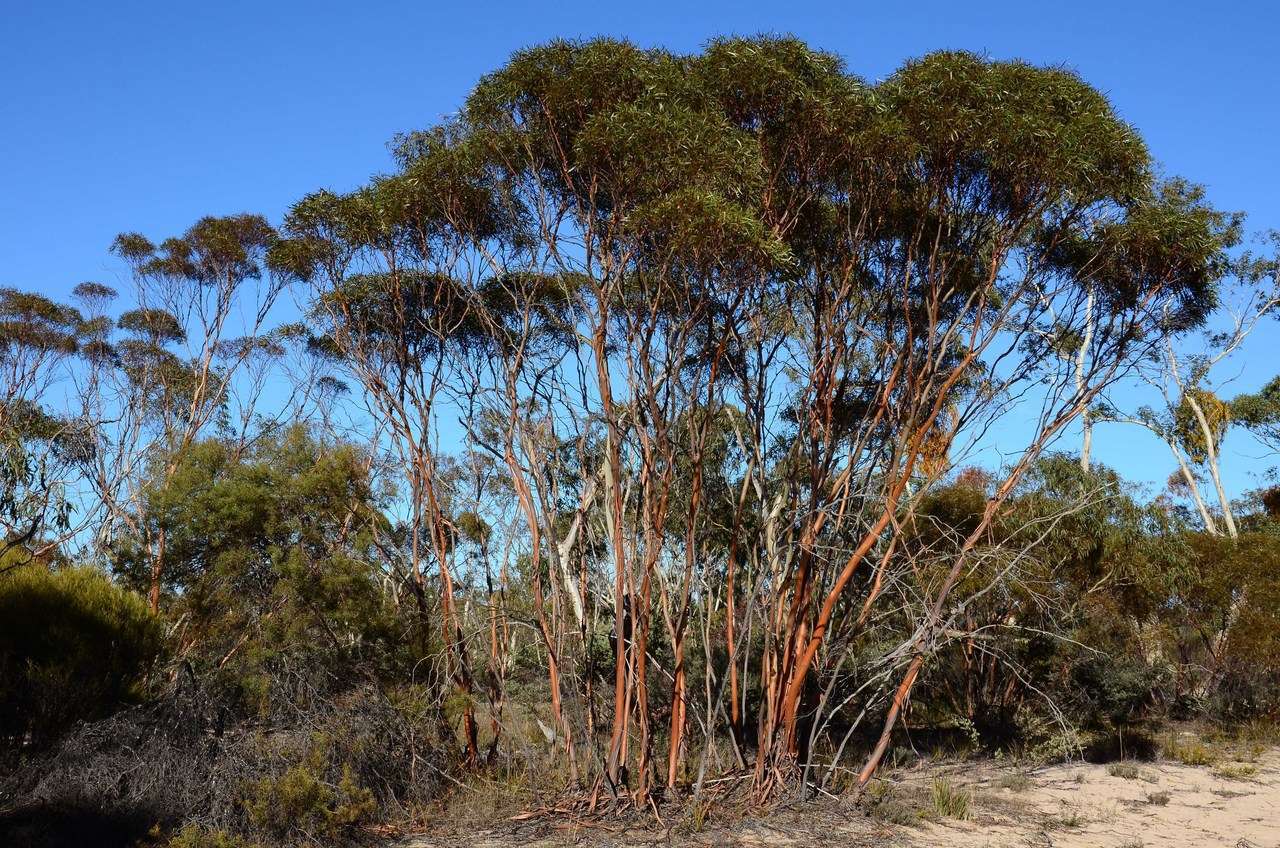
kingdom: Plantae
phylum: Tracheophyta
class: Magnoliopsida
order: Myrtales
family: Myrtaceae
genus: Eucalyptus
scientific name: Eucalyptus wimmerensis
